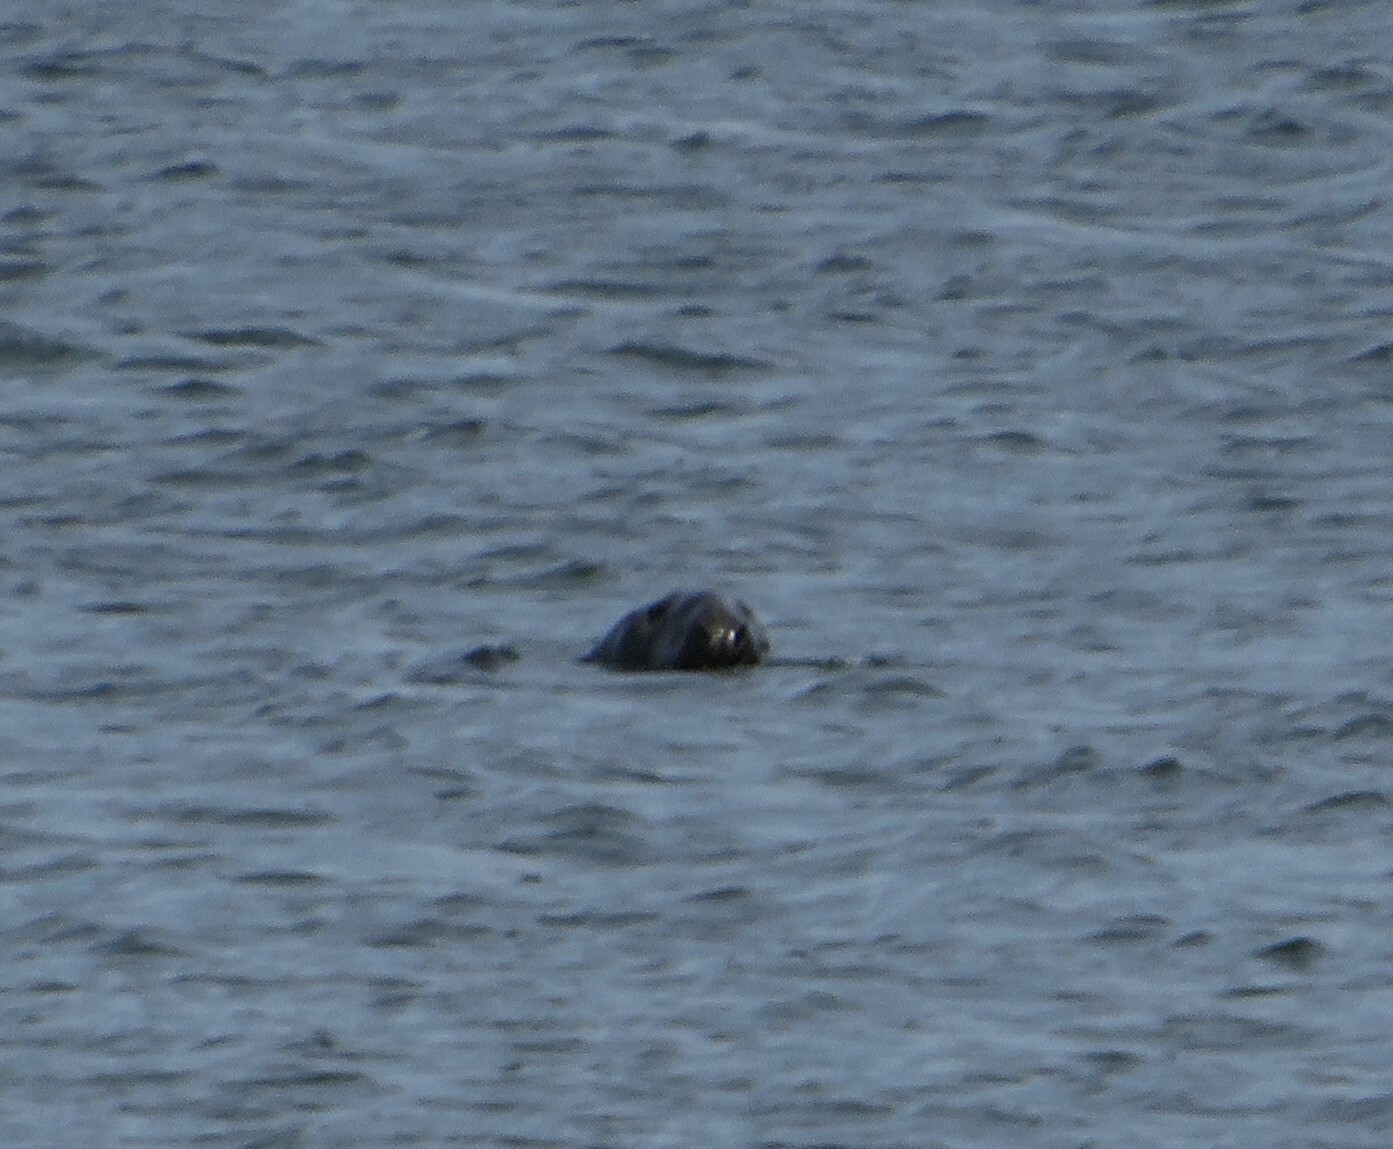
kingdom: Animalia
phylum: Chordata
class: Mammalia
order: Carnivora
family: Phocidae
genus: Halichoerus
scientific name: Halichoerus grypus
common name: Grey seal
